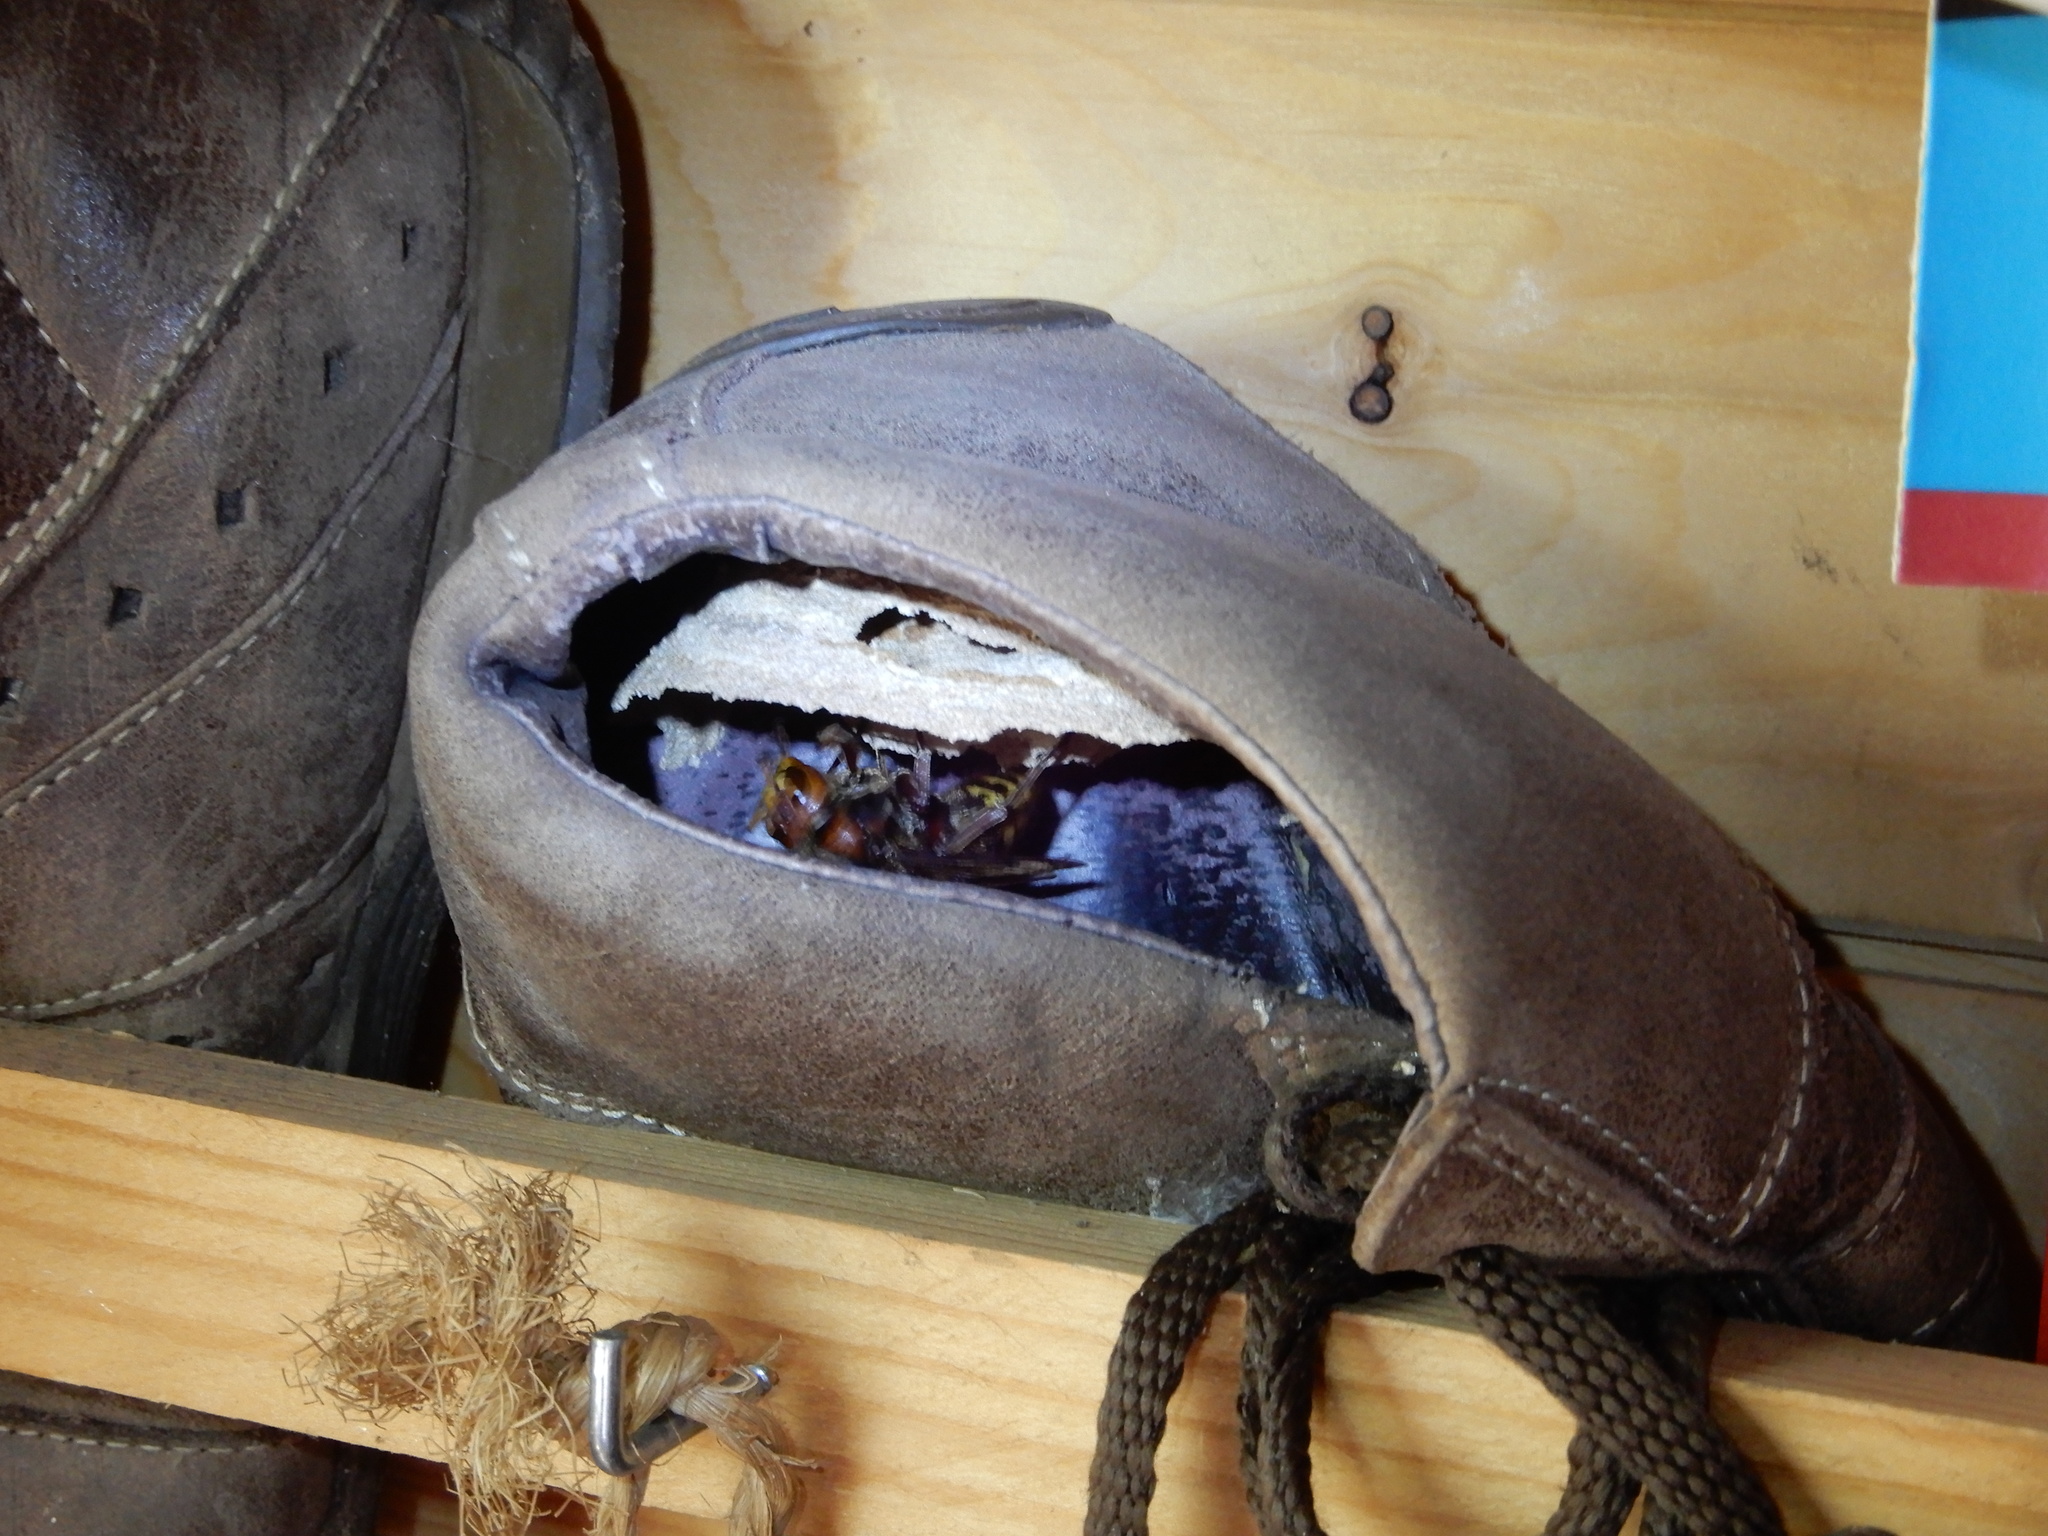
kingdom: Animalia
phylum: Arthropoda
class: Insecta
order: Hymenoptera
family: Vespidae
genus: Vespa
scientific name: Vespa crabro
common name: Hornet
